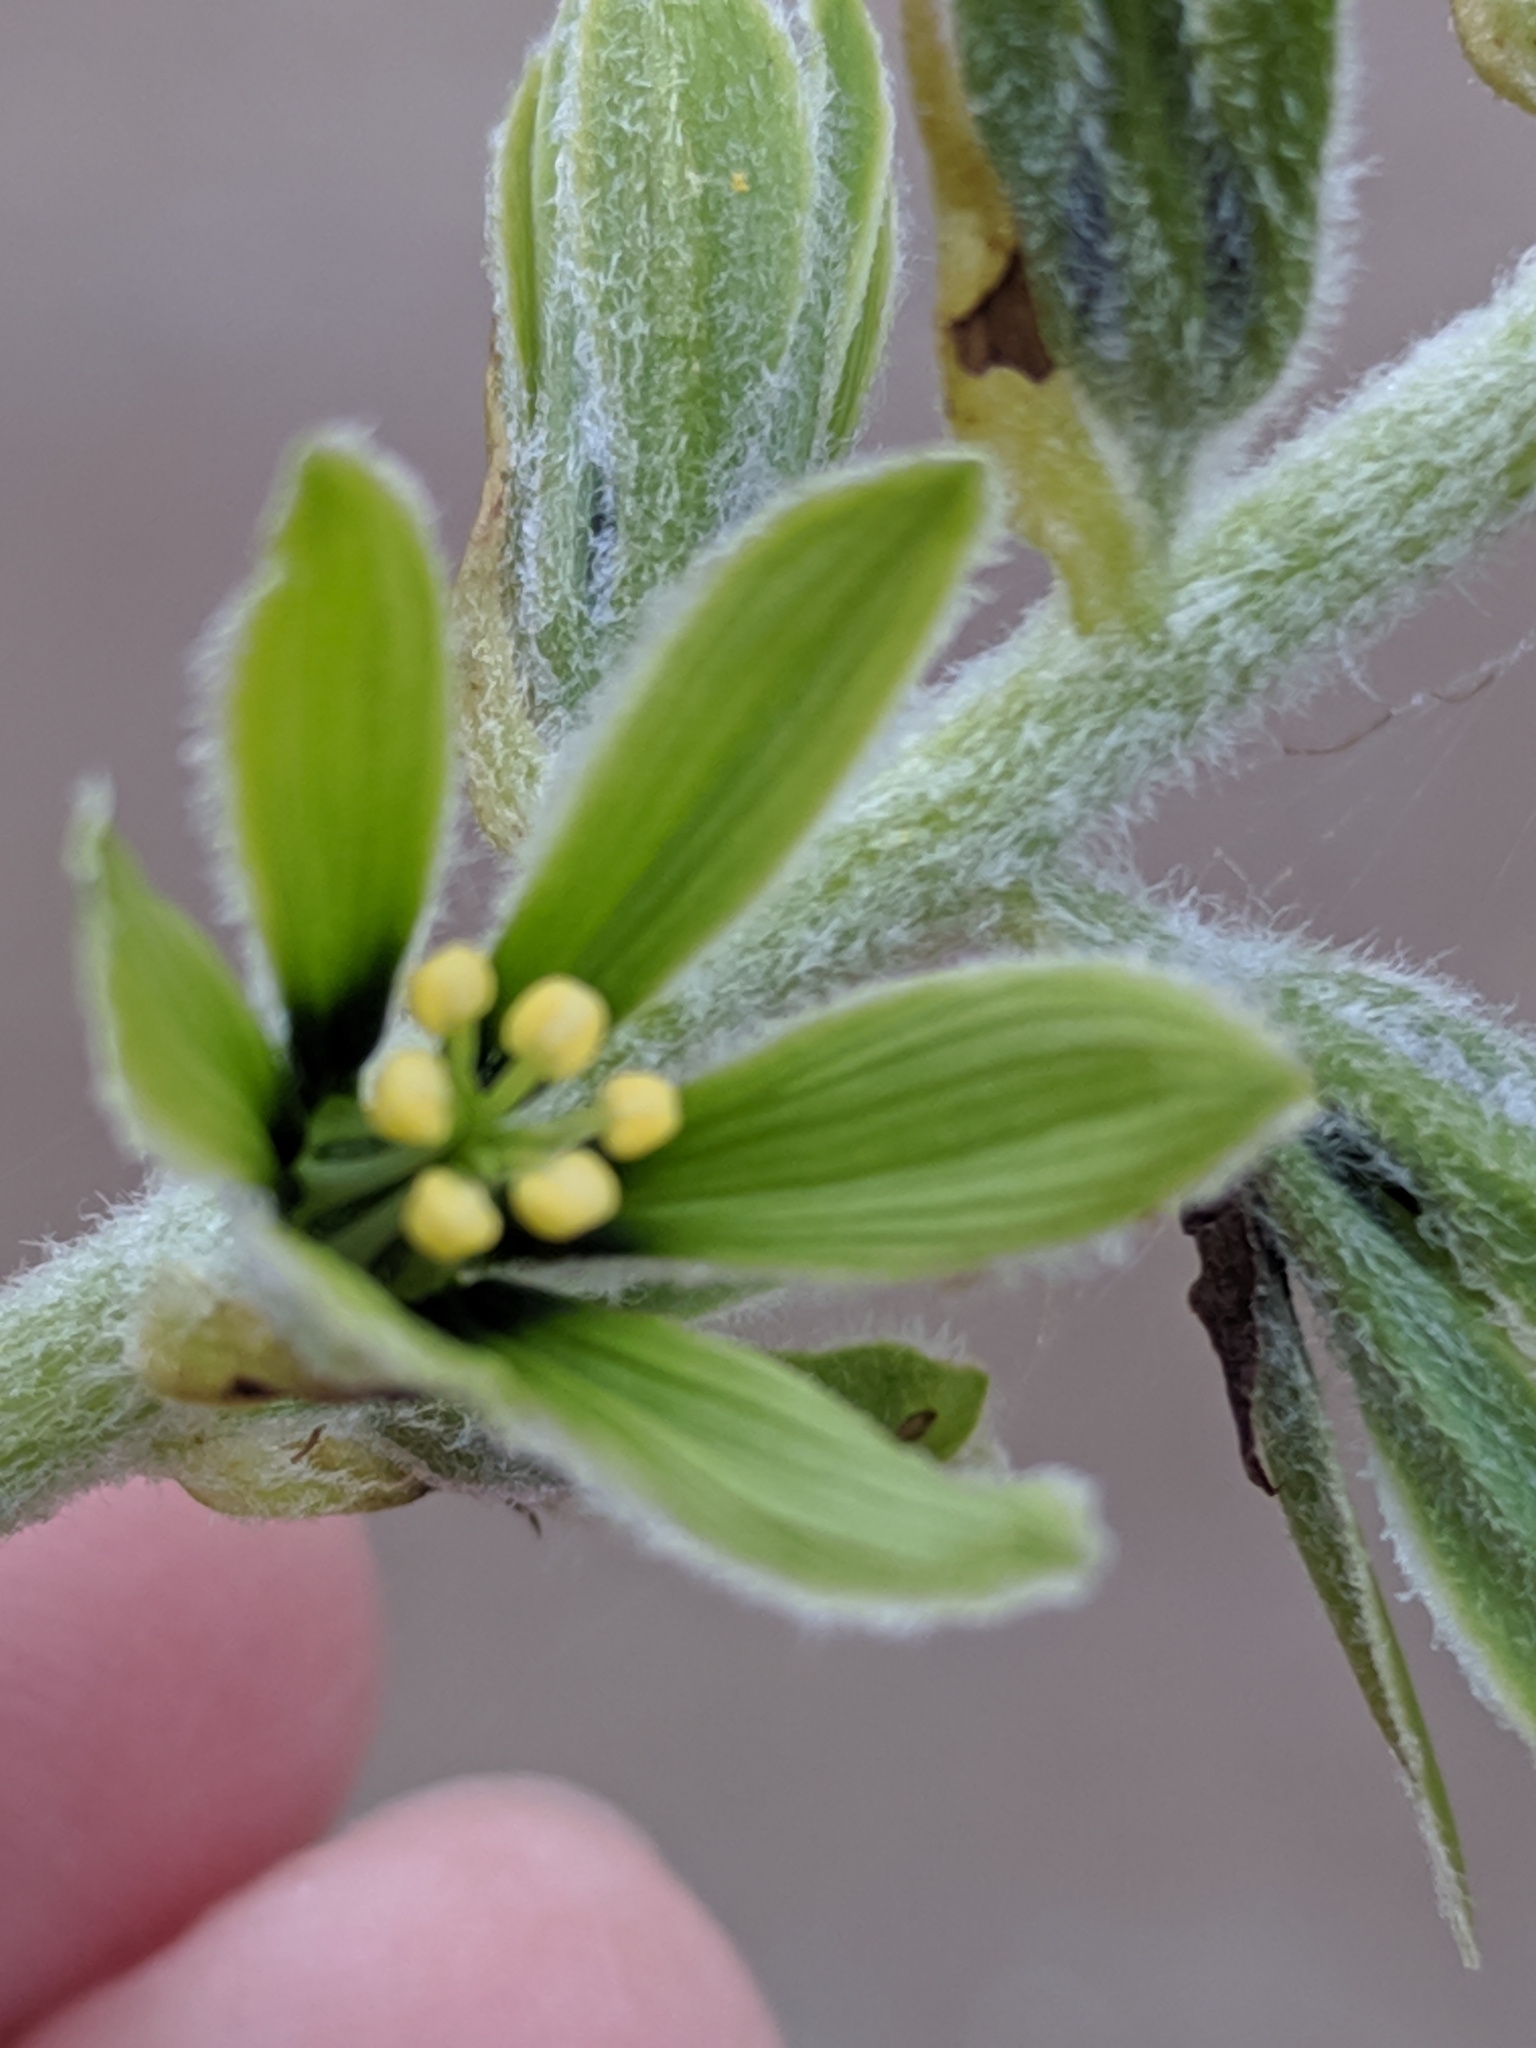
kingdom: Plantae
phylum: Tracheophyta
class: Liliopsida
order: Liliales
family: Melanthiaceae
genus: Veratrum
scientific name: Veratrum viride
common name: American false hellebore
